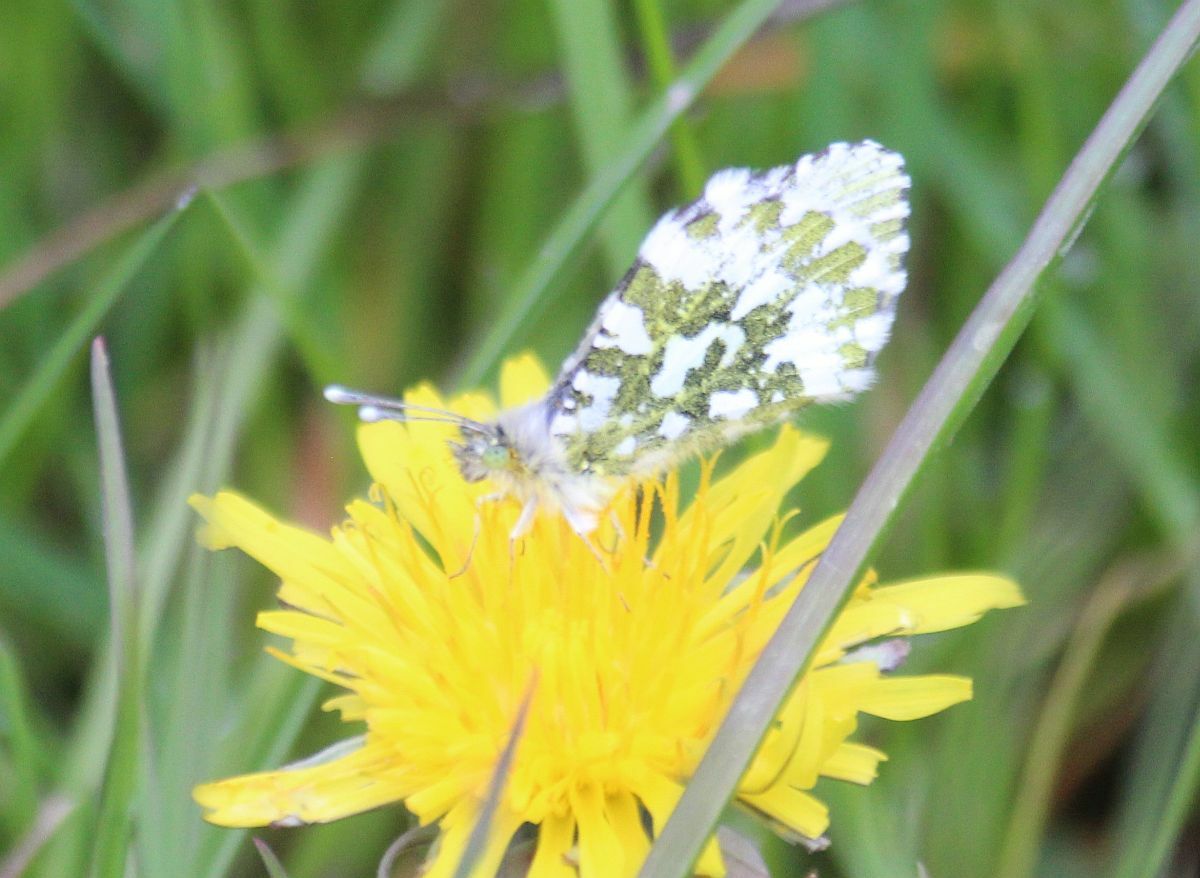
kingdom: Animalia
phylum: Arthropoda
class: Insecta
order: Lepidoptera
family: Pieridae
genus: Anthocharis
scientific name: Anthocharis cardamines
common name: Orange-tip
